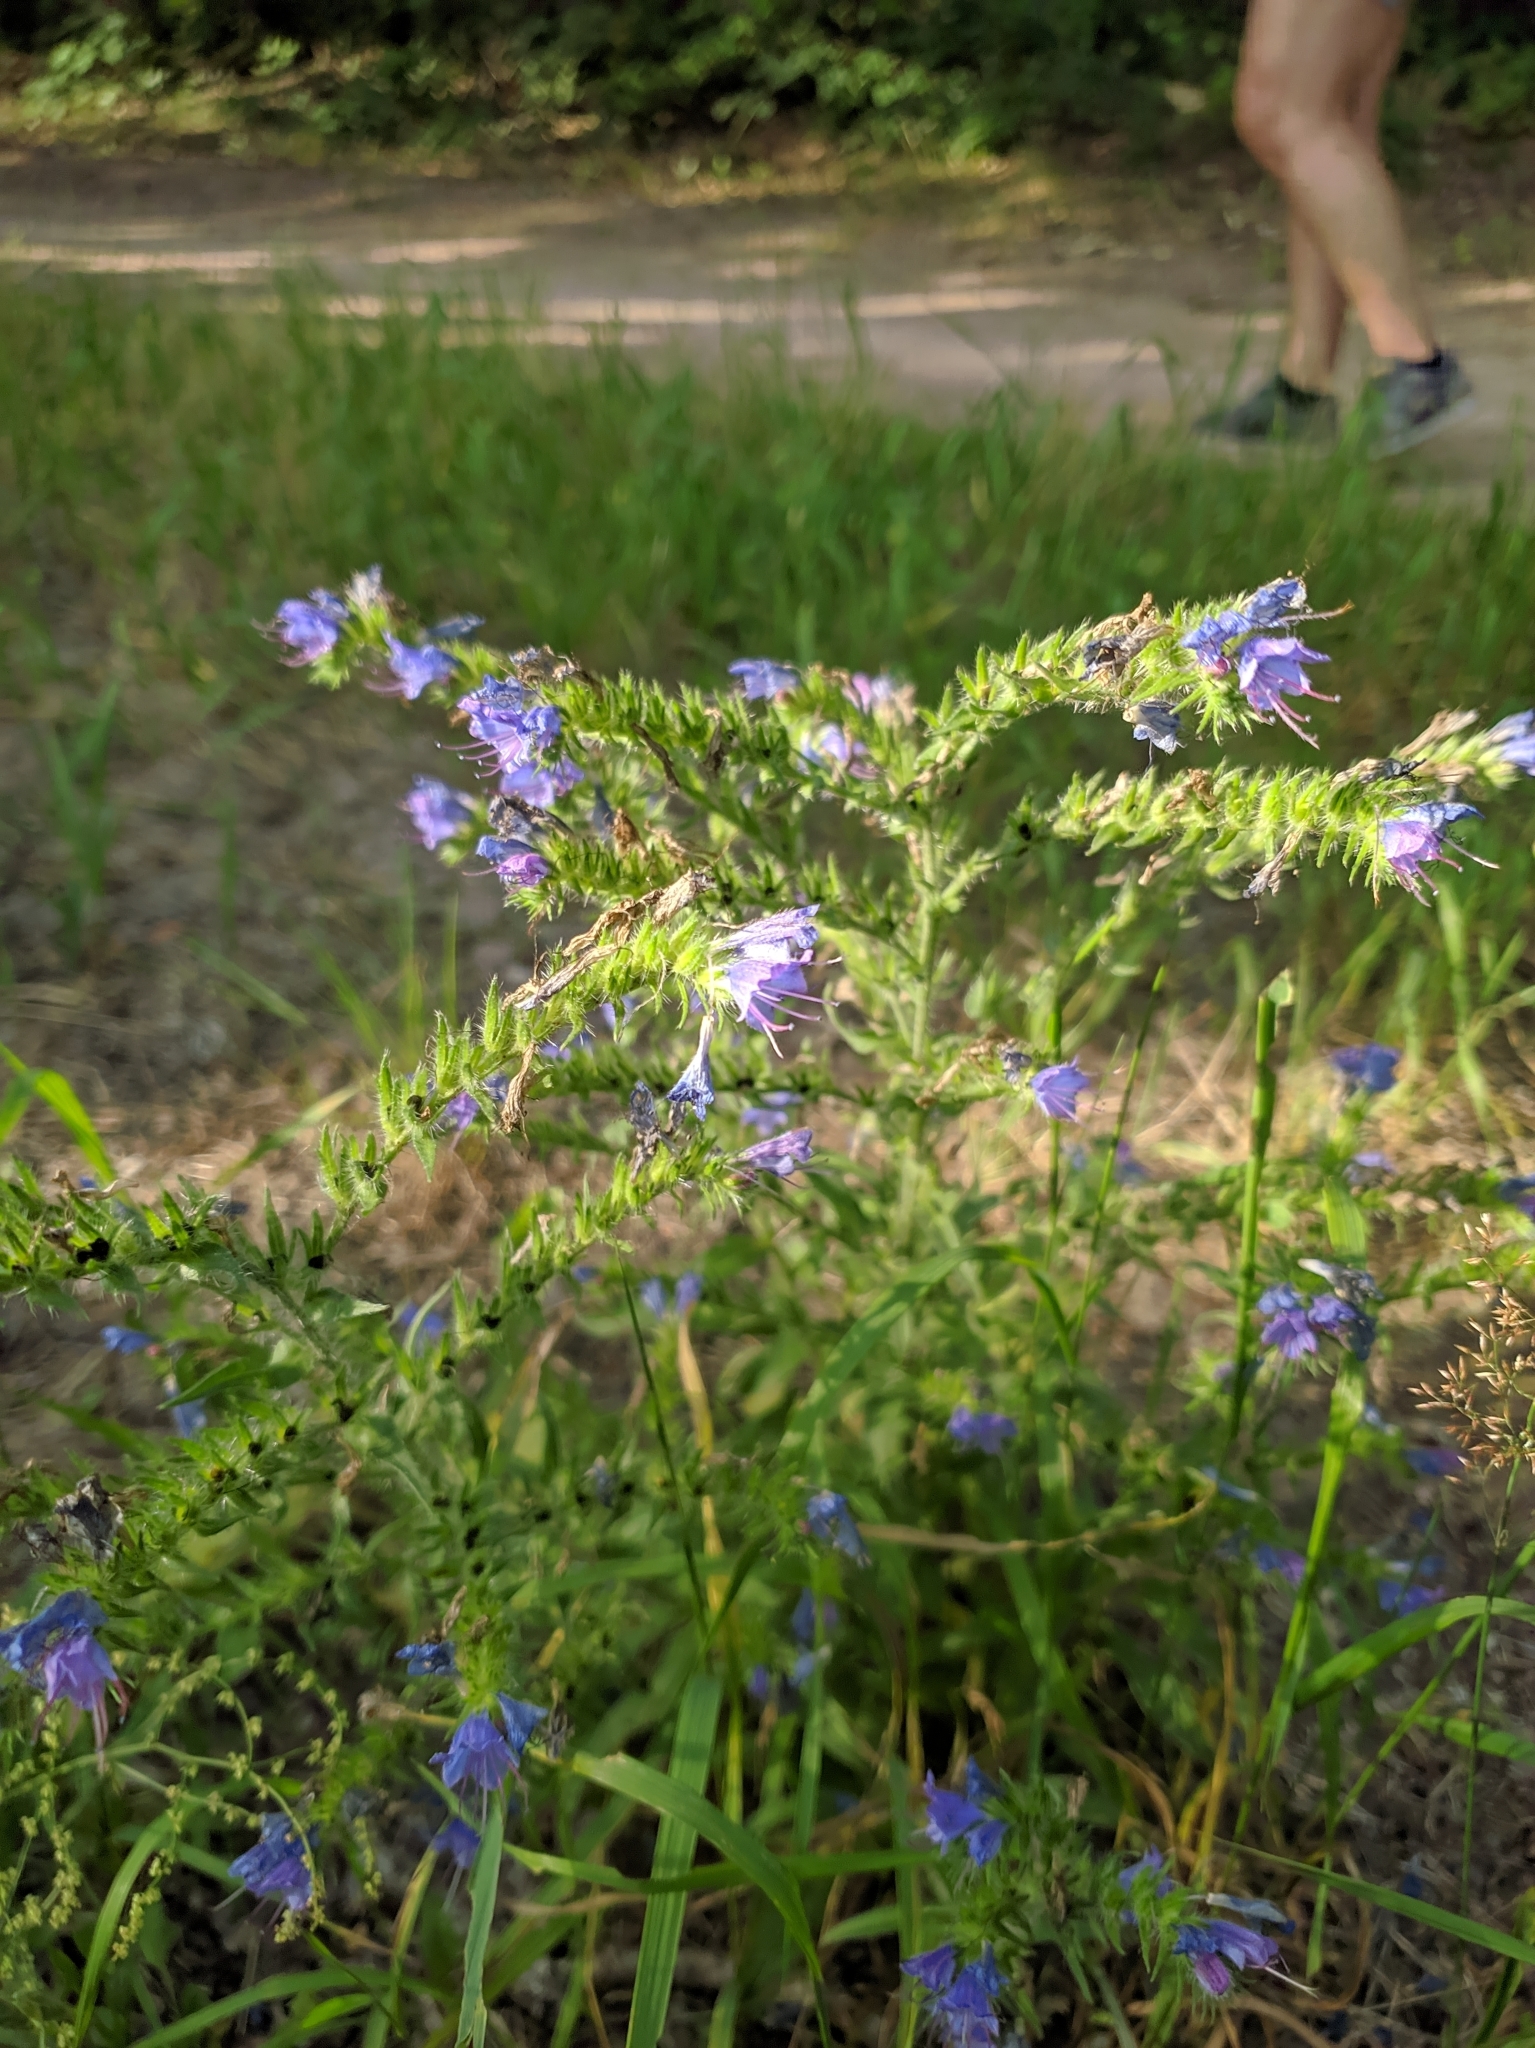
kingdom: Plantae
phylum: Tracheophyta
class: Magnoliopsida
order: Boraginales
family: Boraginaceae
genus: Echium
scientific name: Echium vulgare
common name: Common viper's bugloss
